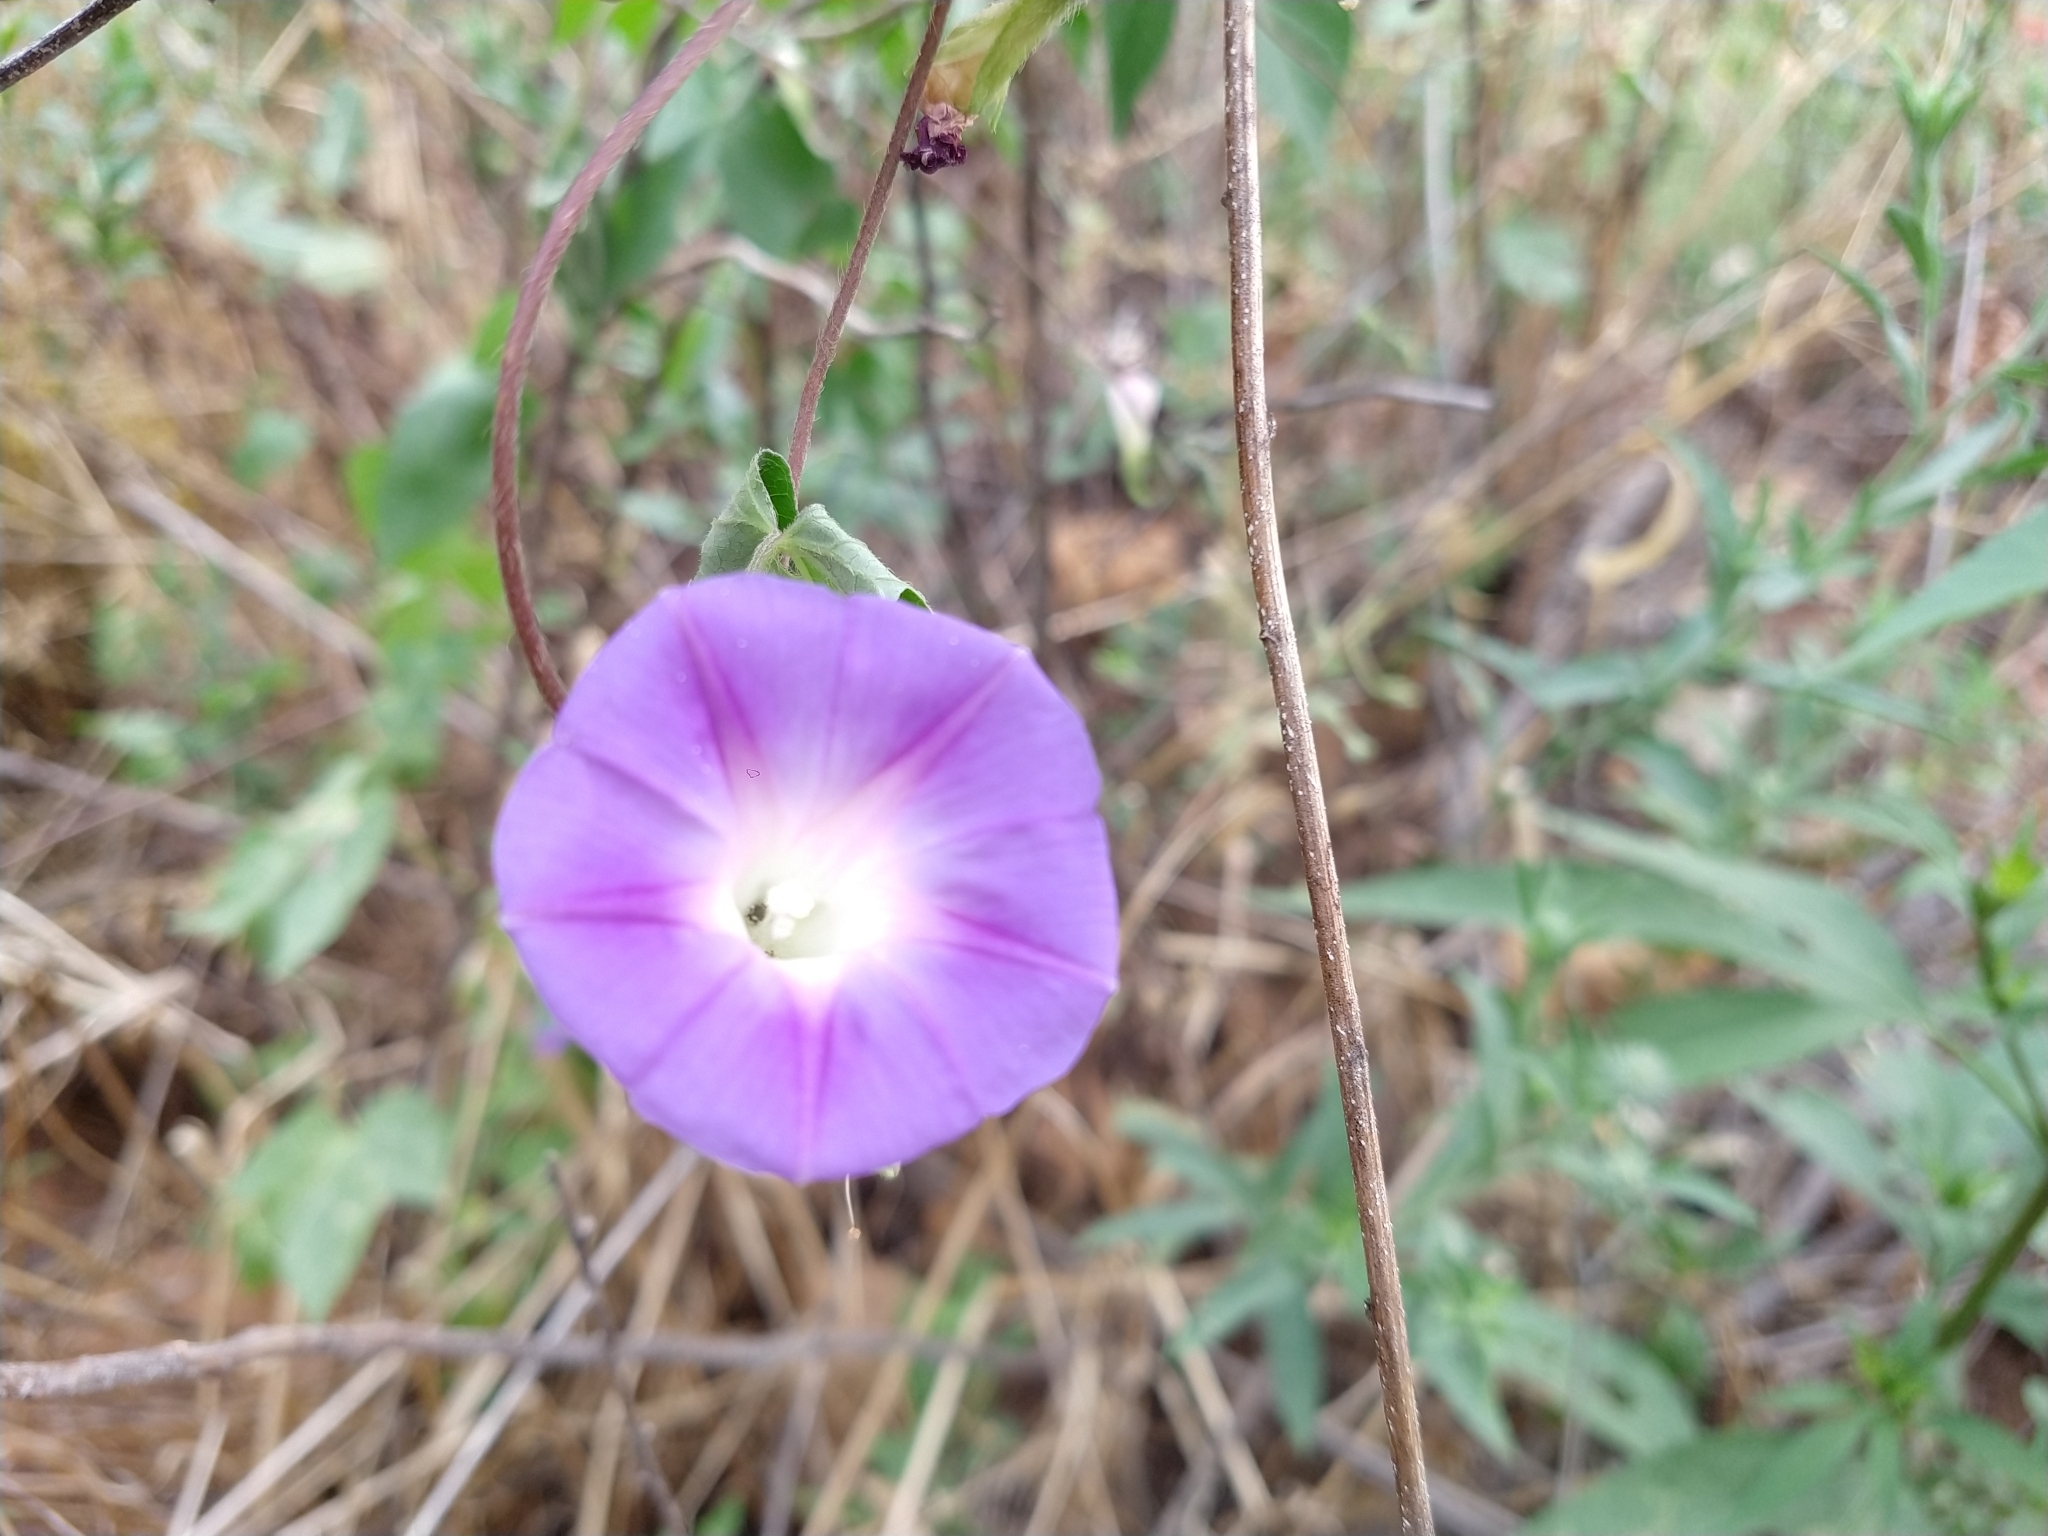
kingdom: Plantae
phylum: Tracheophyta
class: Magnoliopsida
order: Solanales
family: Convolvulaceae
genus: Ipomoea
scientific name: Ipomoea purpurea
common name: Common morning-glory
